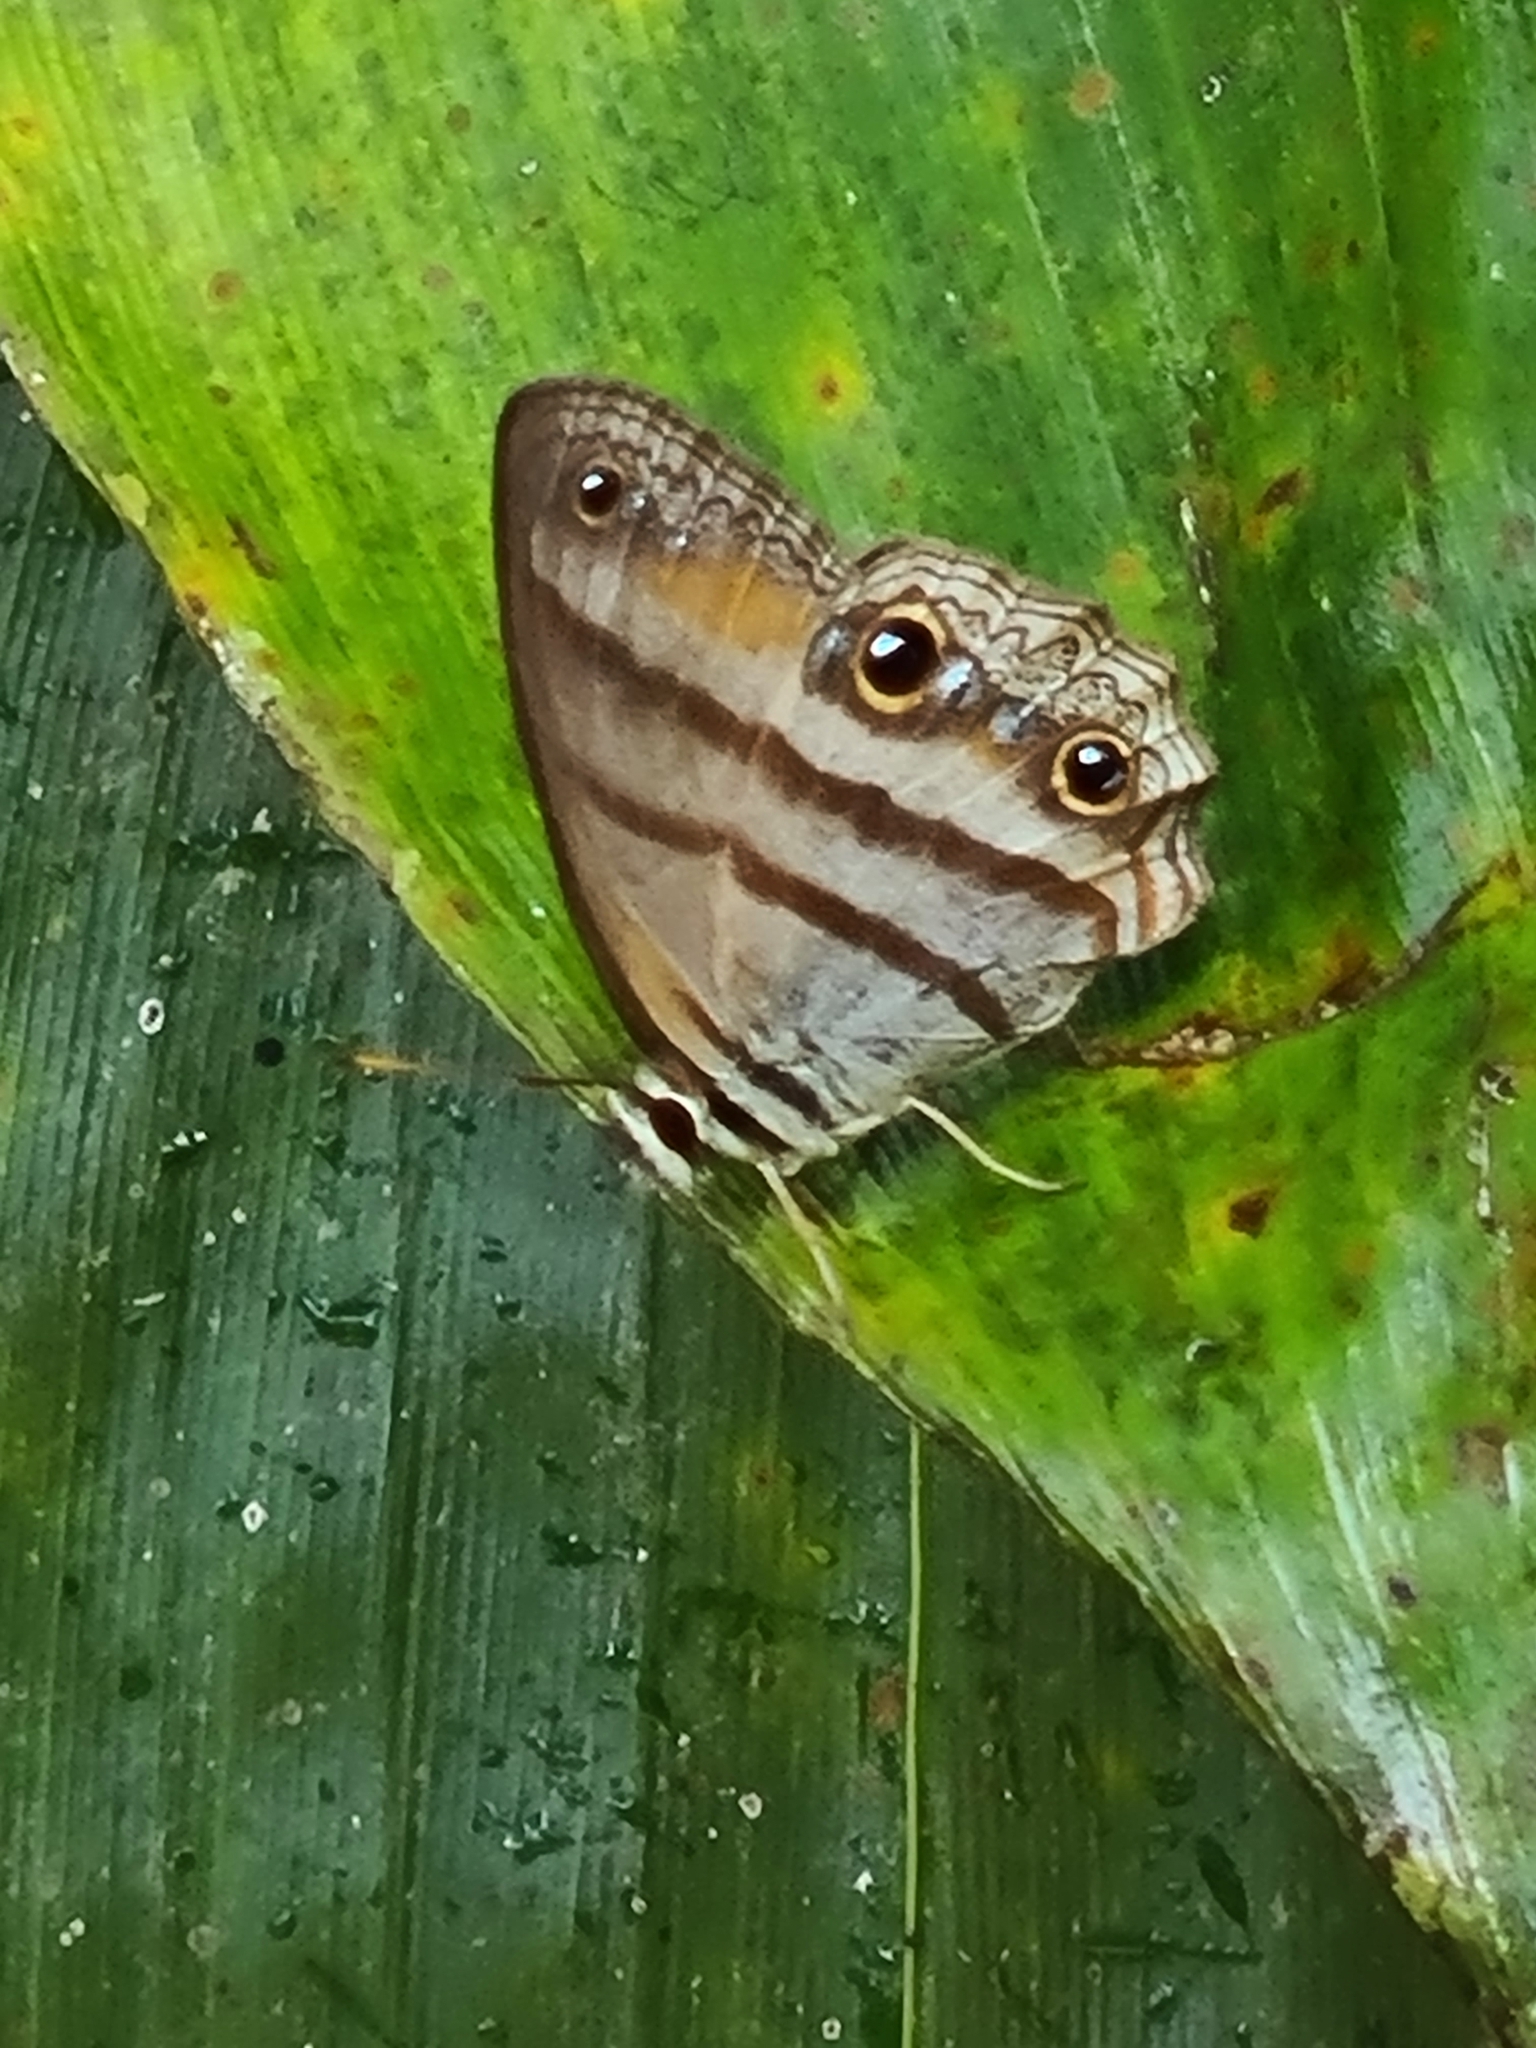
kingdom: Animalia
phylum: Arthropoda
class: Insecta
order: Lepidoptera
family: Nymphalidae
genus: Argyreuptychia
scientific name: Argyreuptychia penelope
